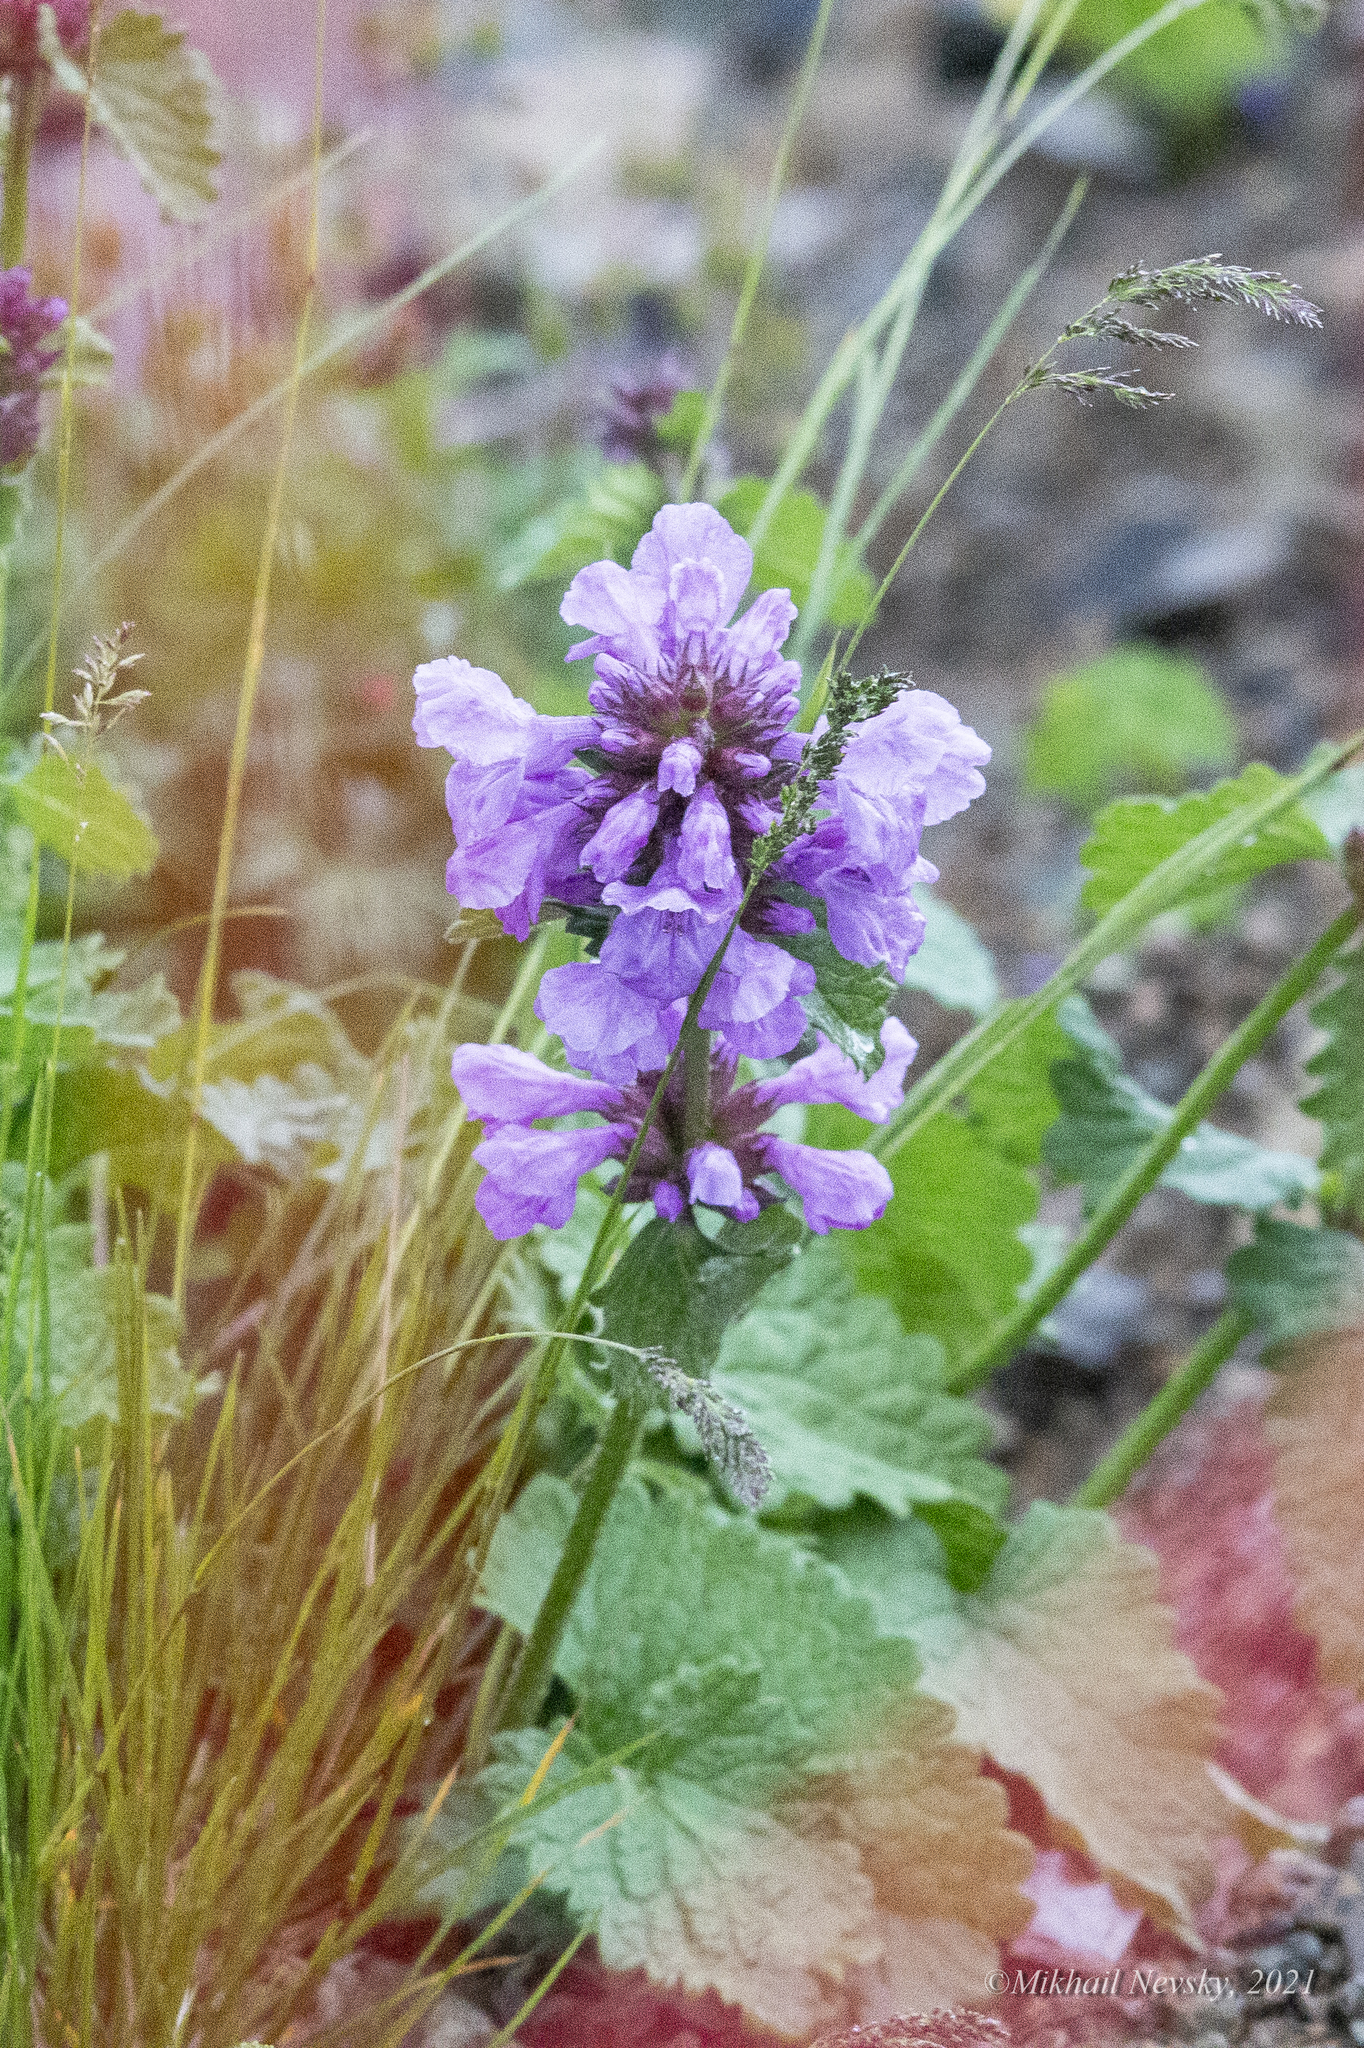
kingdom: Plantae
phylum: Tracheophyta
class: Magnoliopsida
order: Lamiales
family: Lamiaceae
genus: Betonica
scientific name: Betonica macrantha
